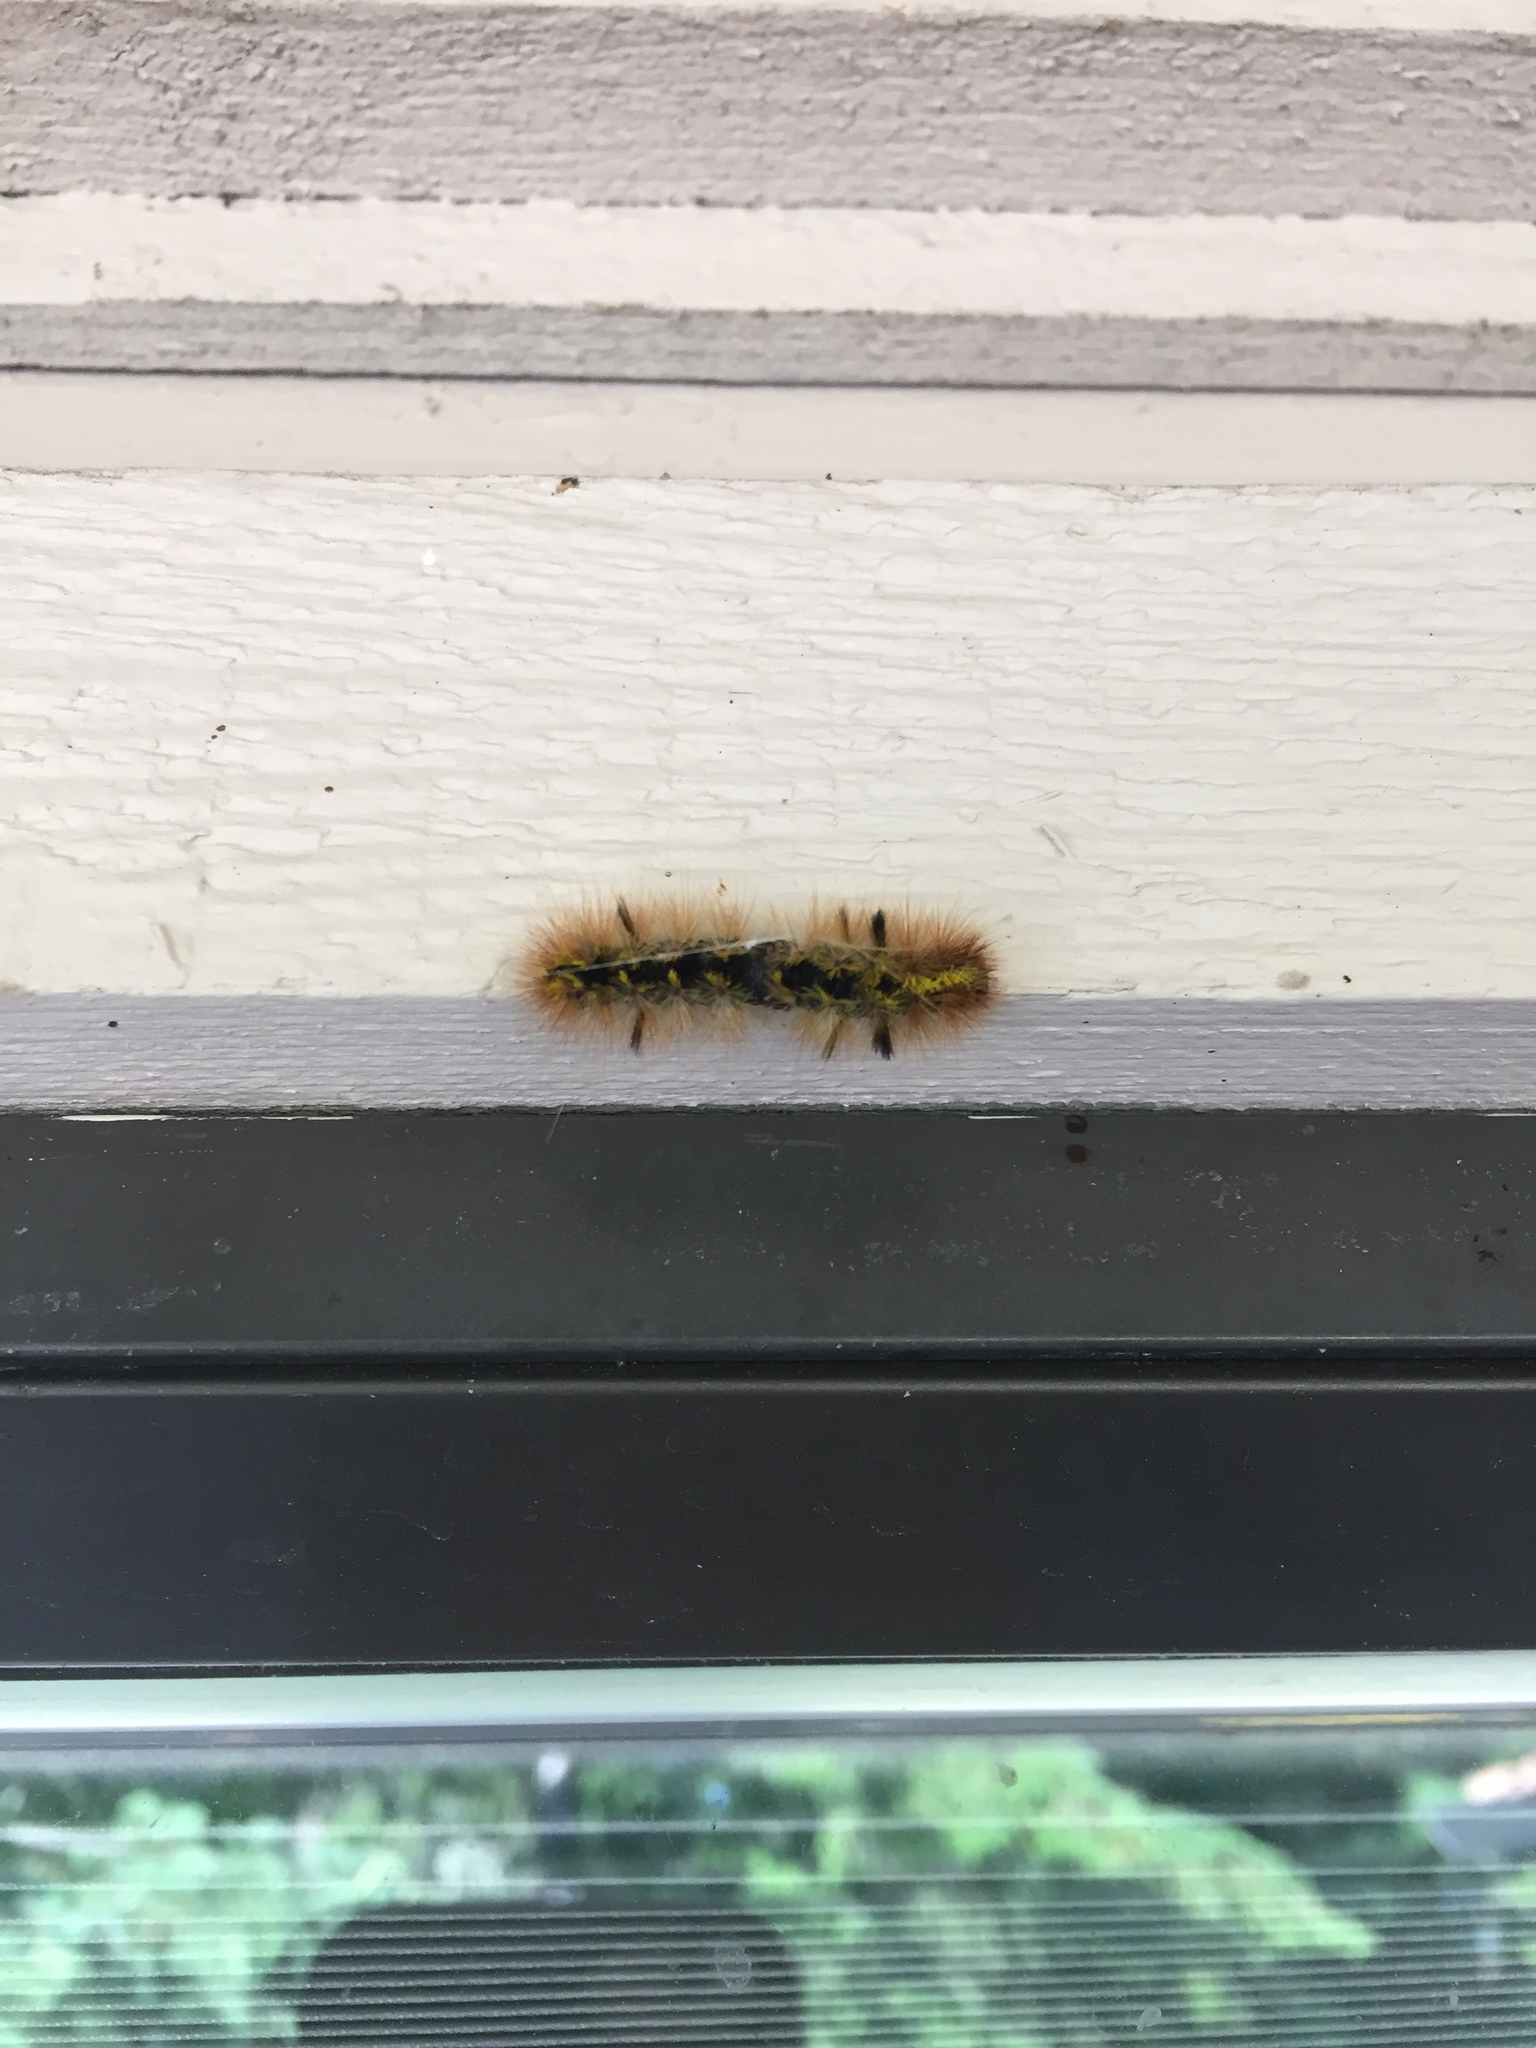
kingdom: Animalia
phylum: Arthropoda
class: Insecta
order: Lepidoptera
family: Erebidae
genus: Lophocampa
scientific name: Lophocampa argentata
